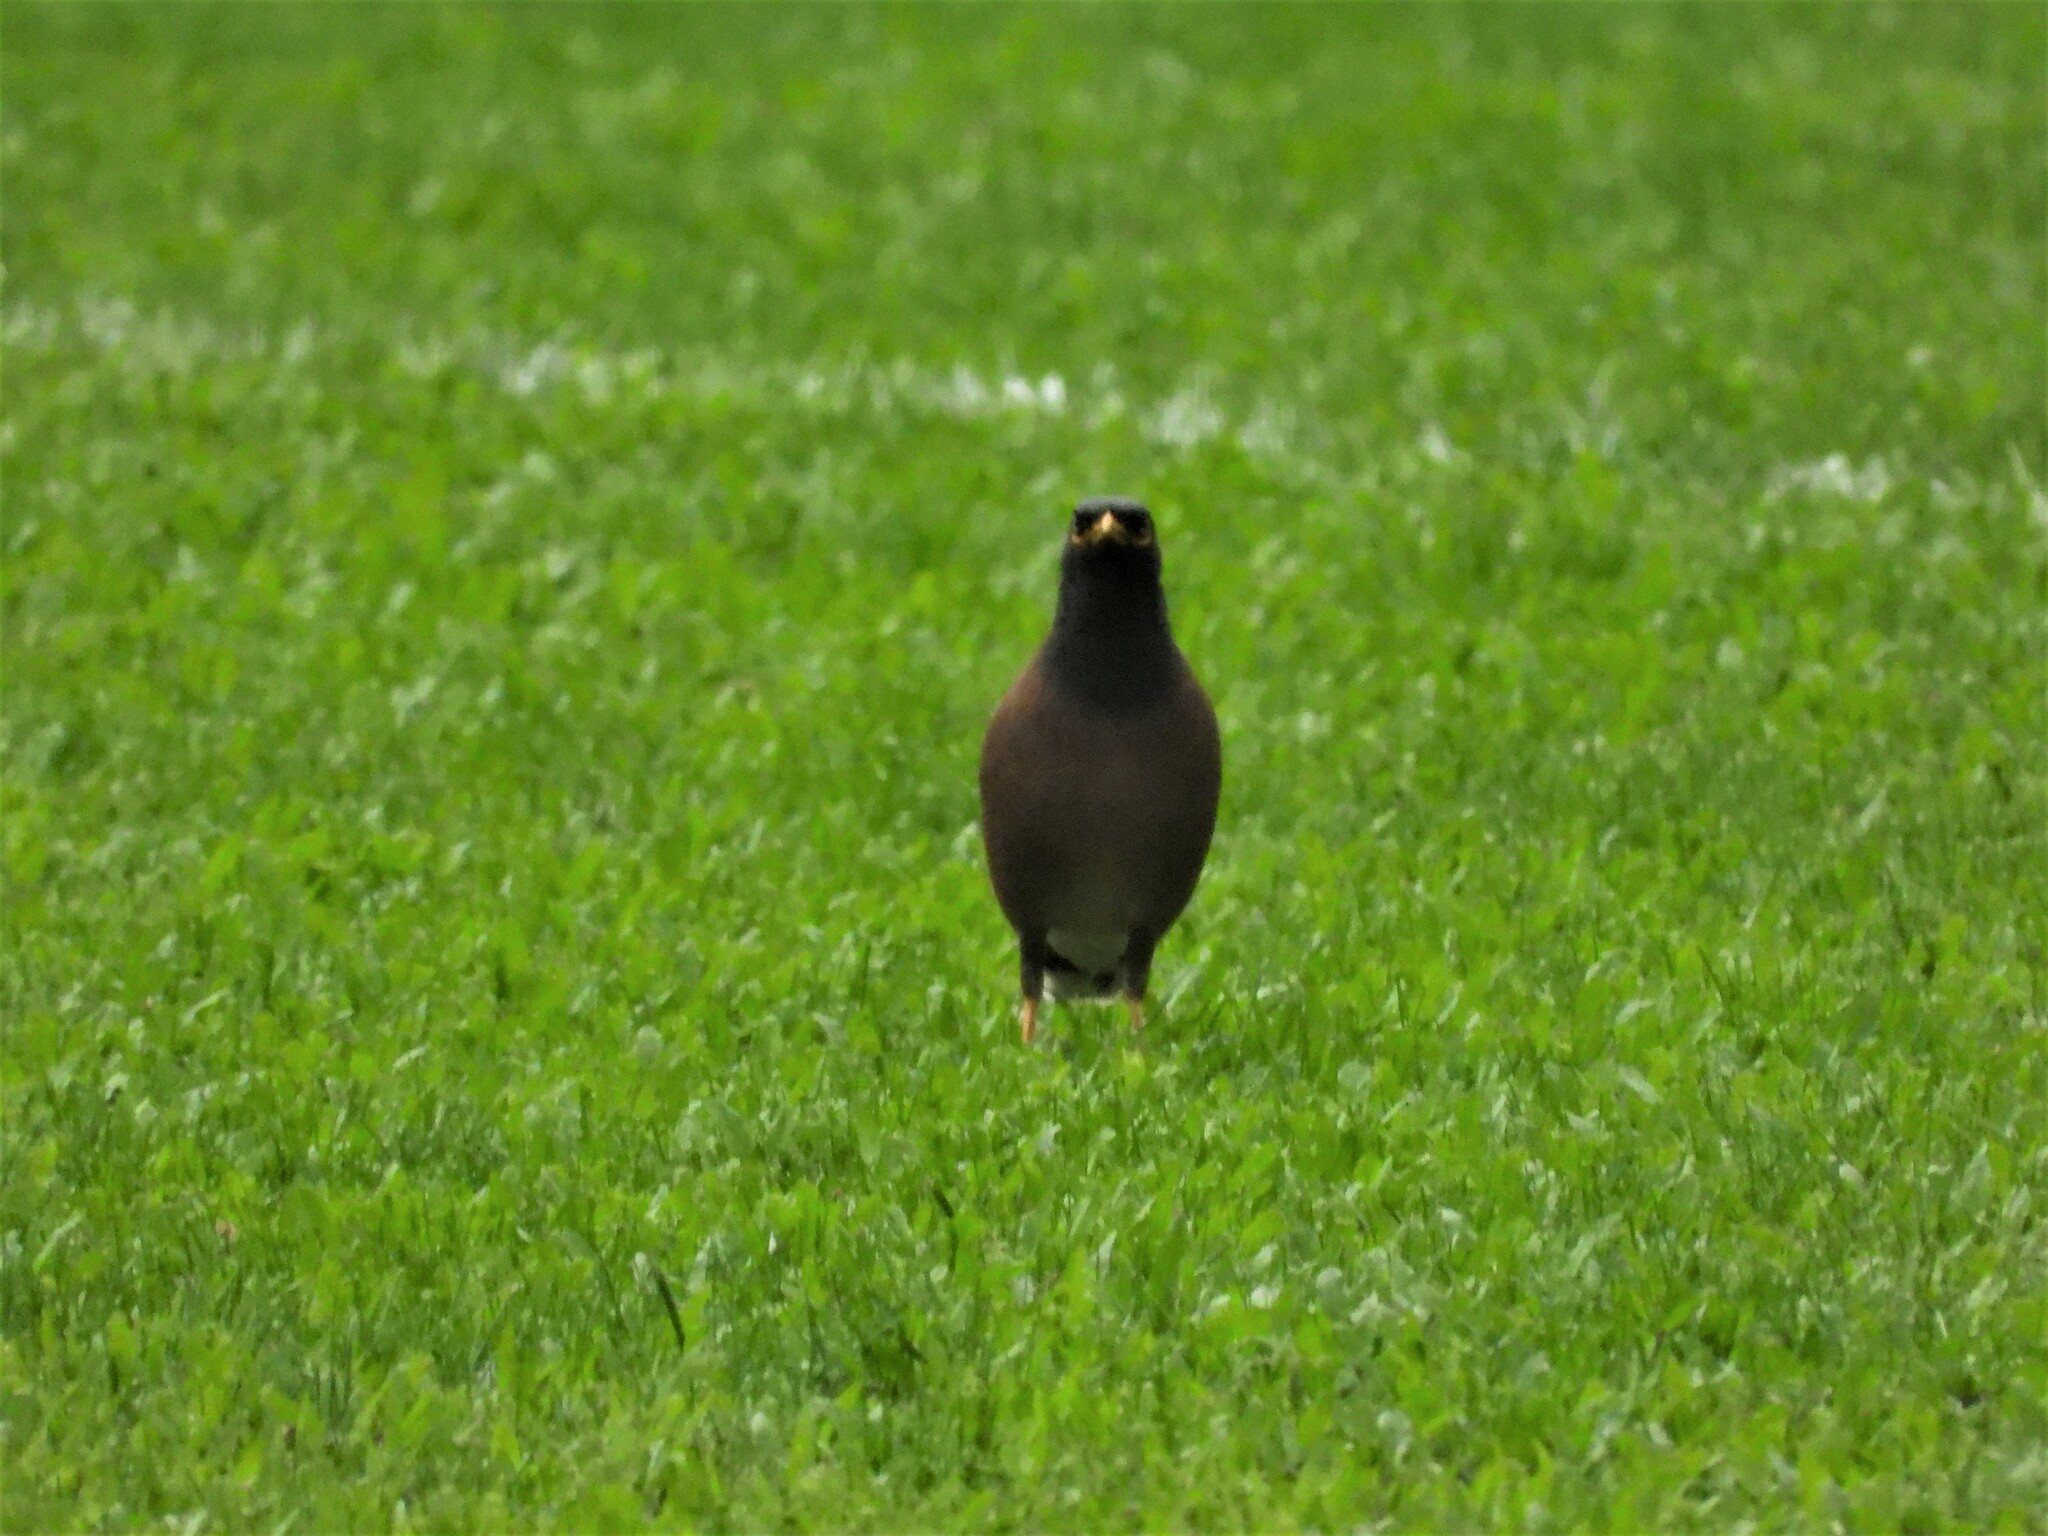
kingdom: Animalia
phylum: Chordata
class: Aves
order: Passeriformes
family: Sturnidae
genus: Acridotheres
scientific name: Acridotheres tristis
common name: Common myna
